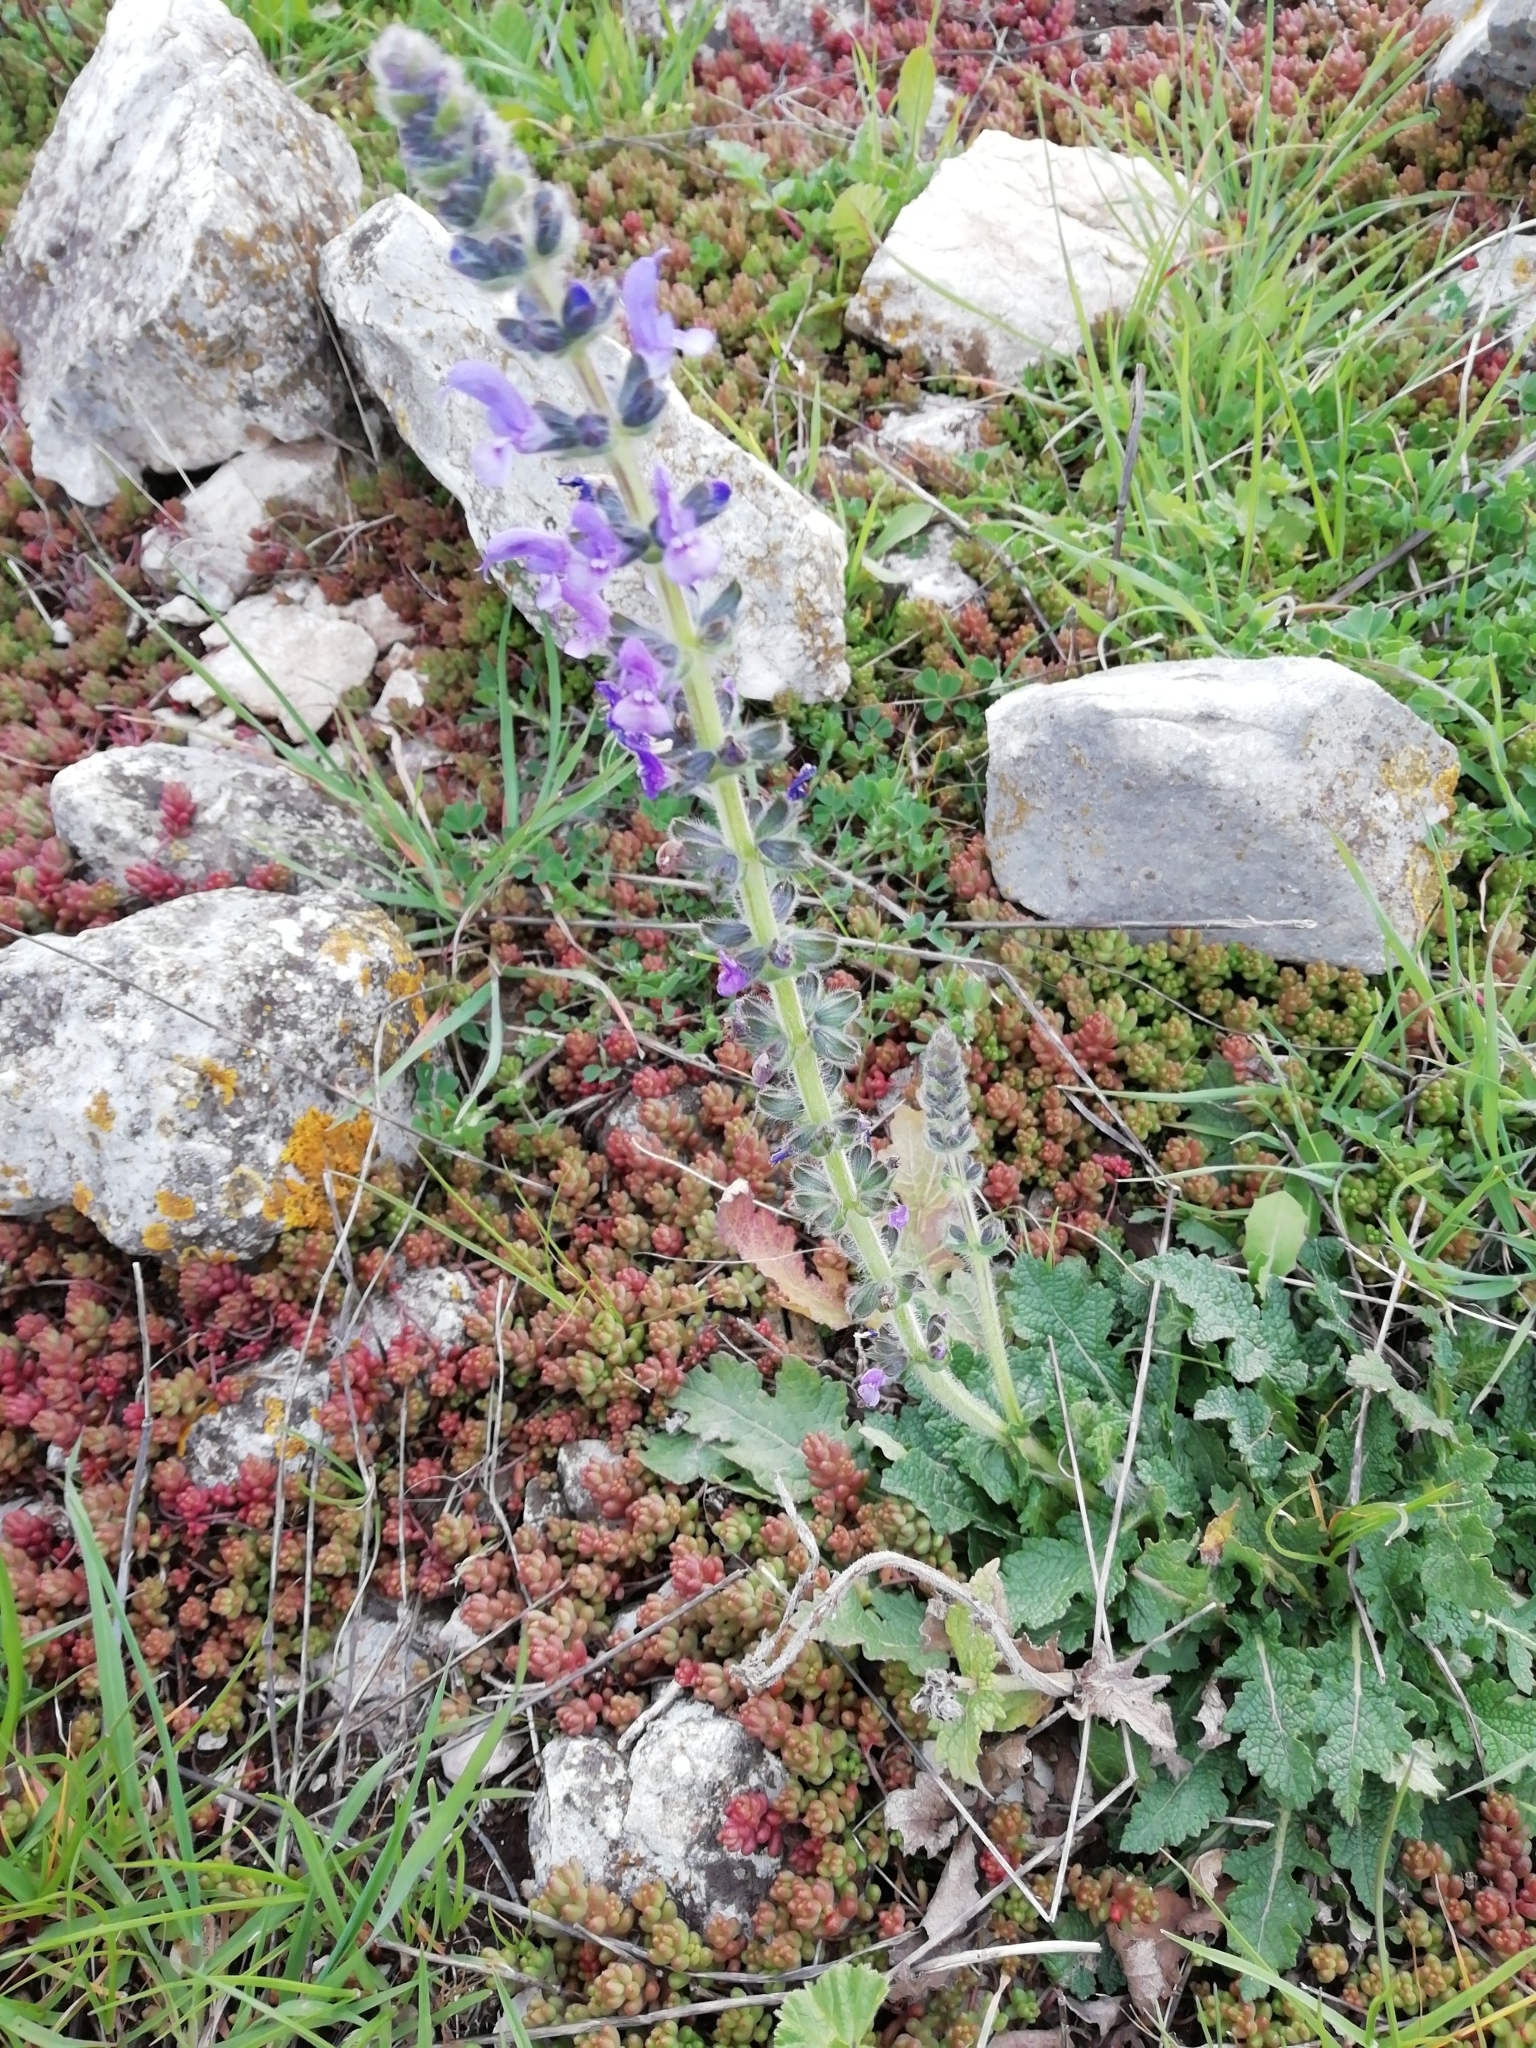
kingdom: Plantae
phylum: Tracheophyta
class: Magnoliopsida
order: Lamiales
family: Lamiaceae
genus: Salvia
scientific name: Salvia verbenaca
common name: Wild clary
